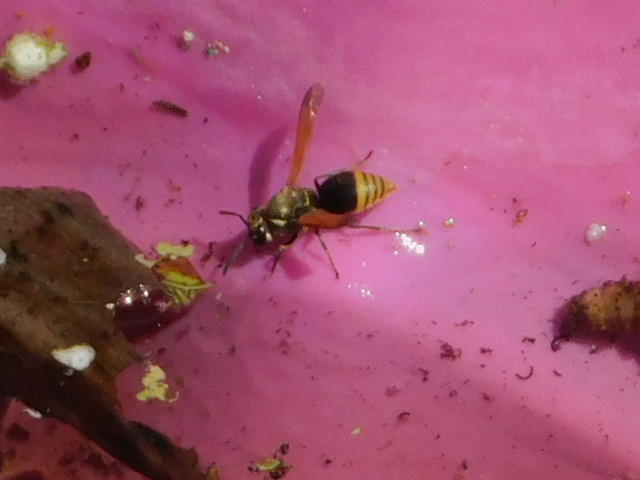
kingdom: Animalia
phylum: Arthropoda
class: Insecta
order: Hymenoptera
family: Eumenidae
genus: Pachodynerus
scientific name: Pachodynerus nasidens
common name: Key hole wasp
